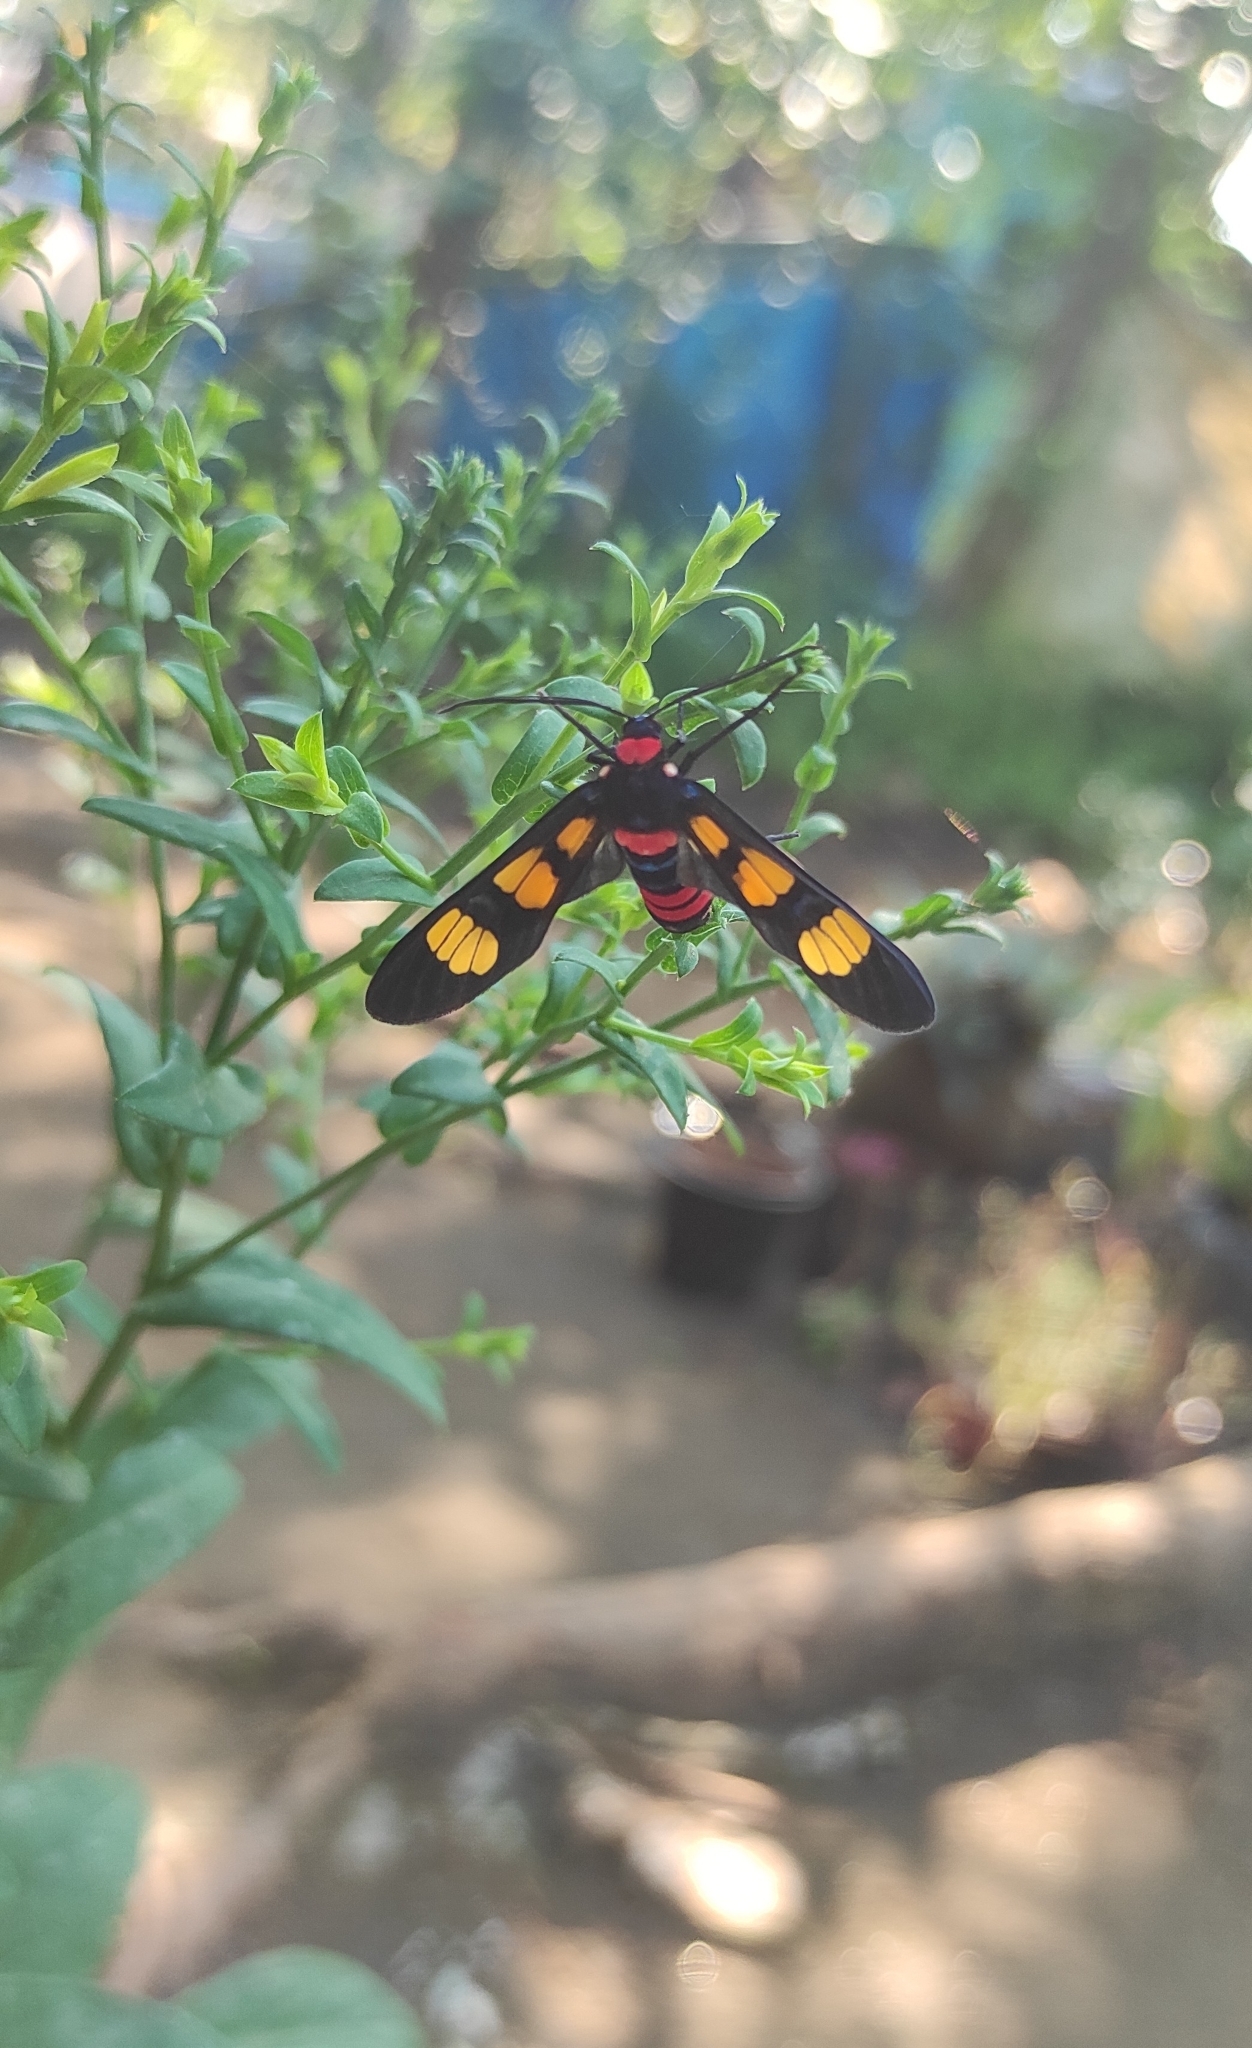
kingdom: Animalia
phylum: Arthropoda
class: Insecta
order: Lepidoptera
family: Erebidae
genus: Euchromia
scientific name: Euchromia polymena
